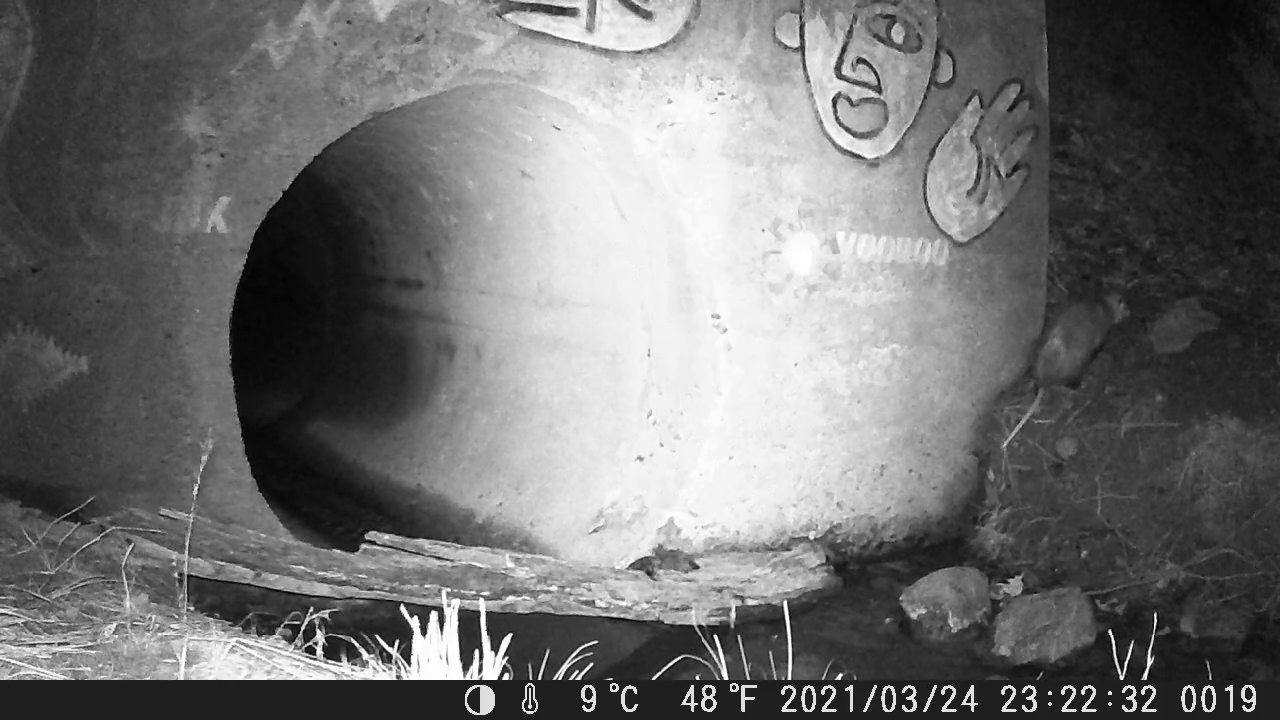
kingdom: Animalia
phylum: Chordata
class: Mammalia
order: Didelphimorphia
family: Didelphidae
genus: Didelphis
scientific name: Didelphis virginiana
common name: Virginia opossum
